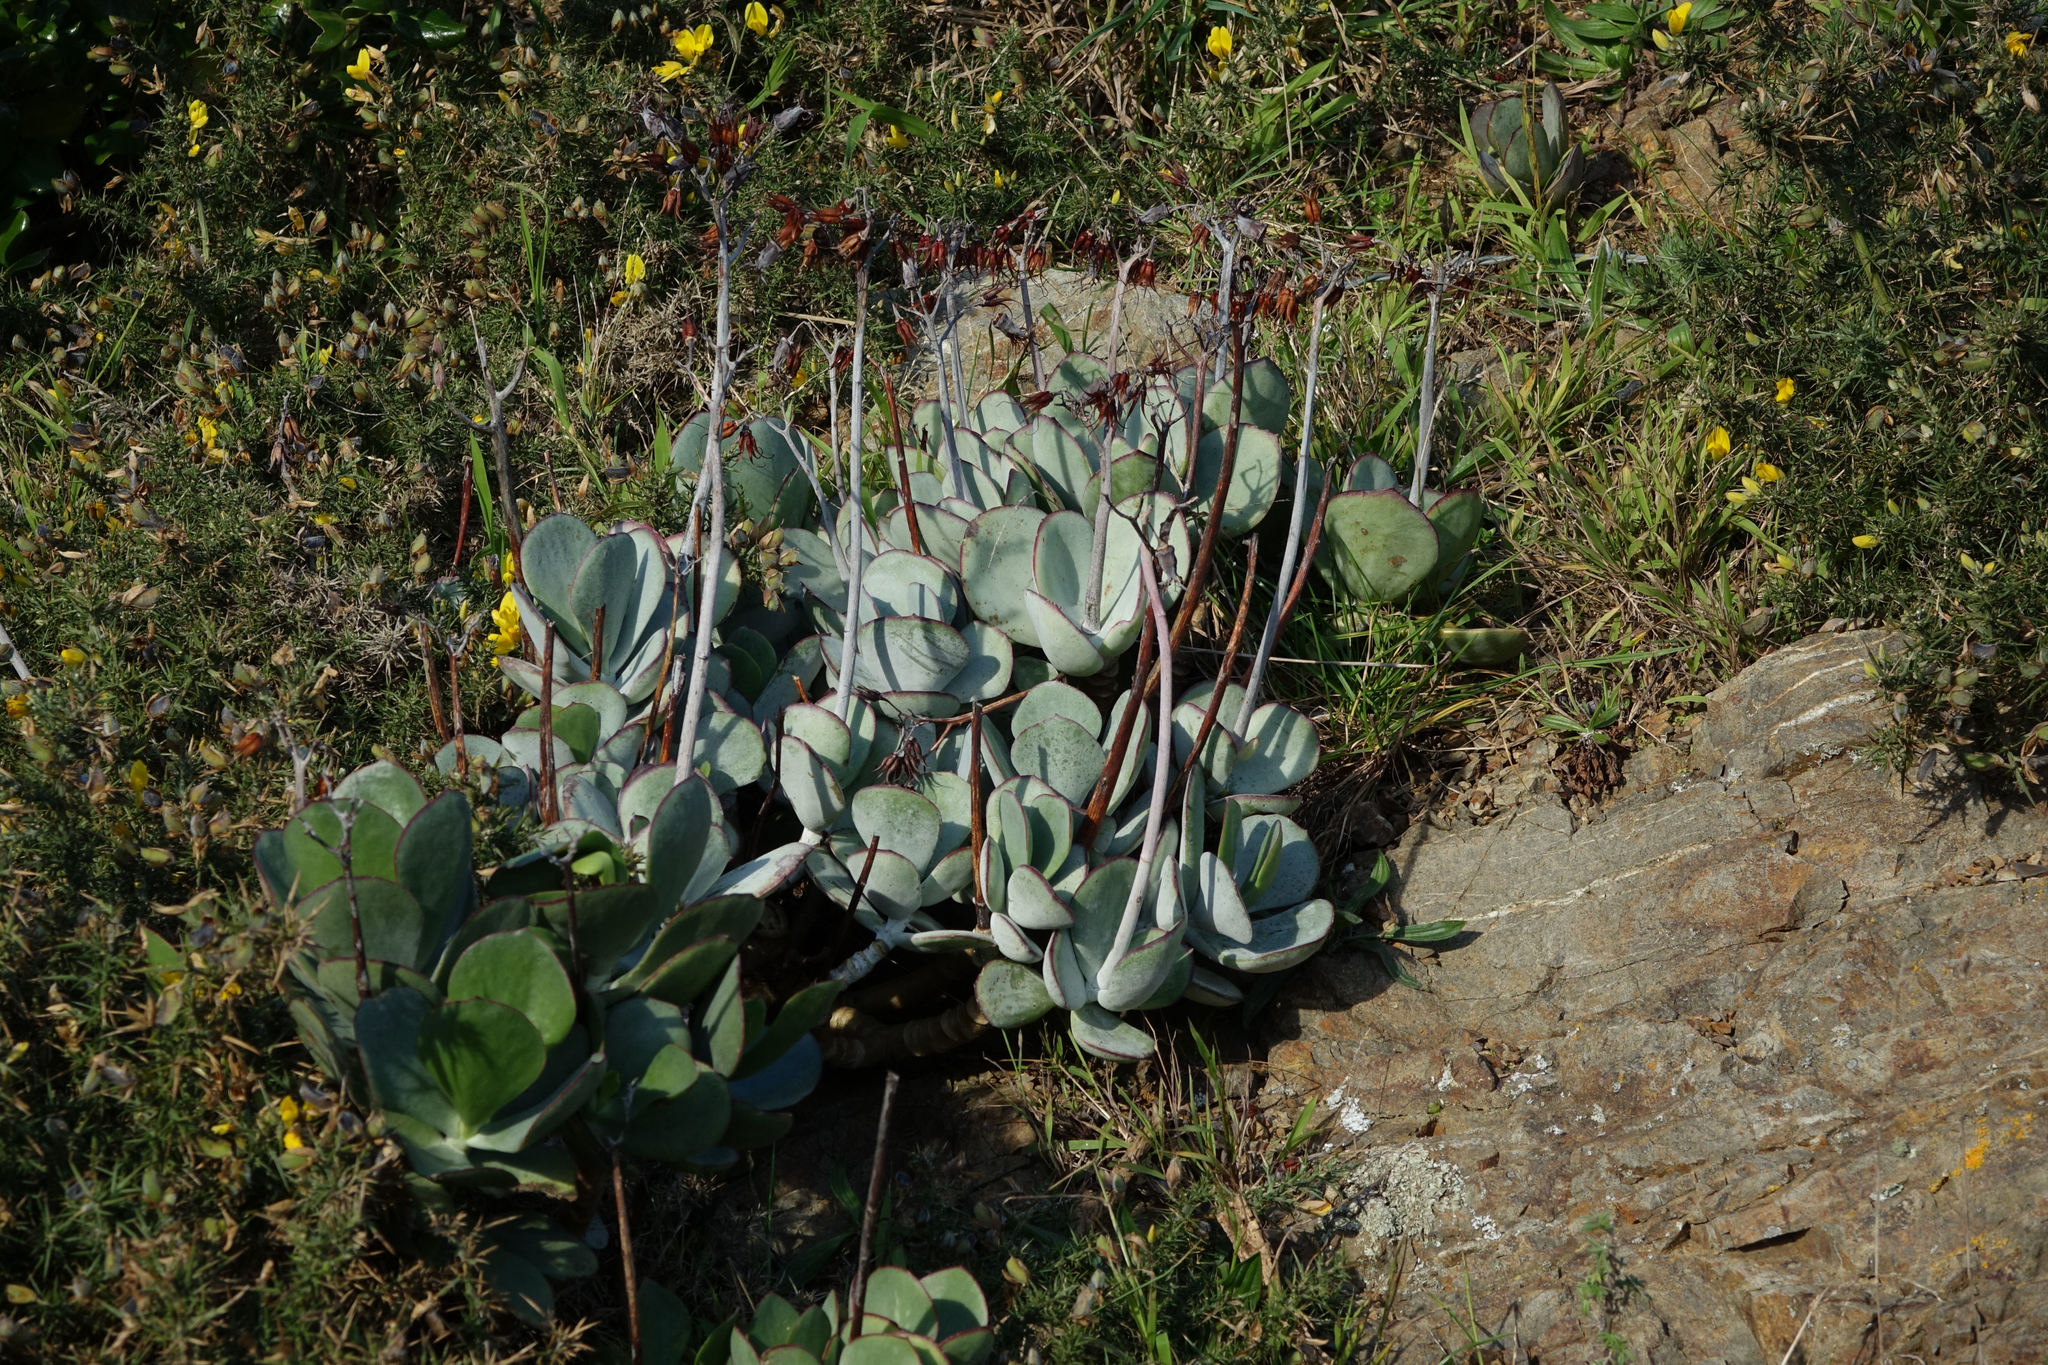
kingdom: Plantae
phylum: Tracheophyta
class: Magnoliopsida
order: Saxifragales
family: Crassulaceae
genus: Cotyledon
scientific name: Cotyledon orbiculata
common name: Pig's ear
